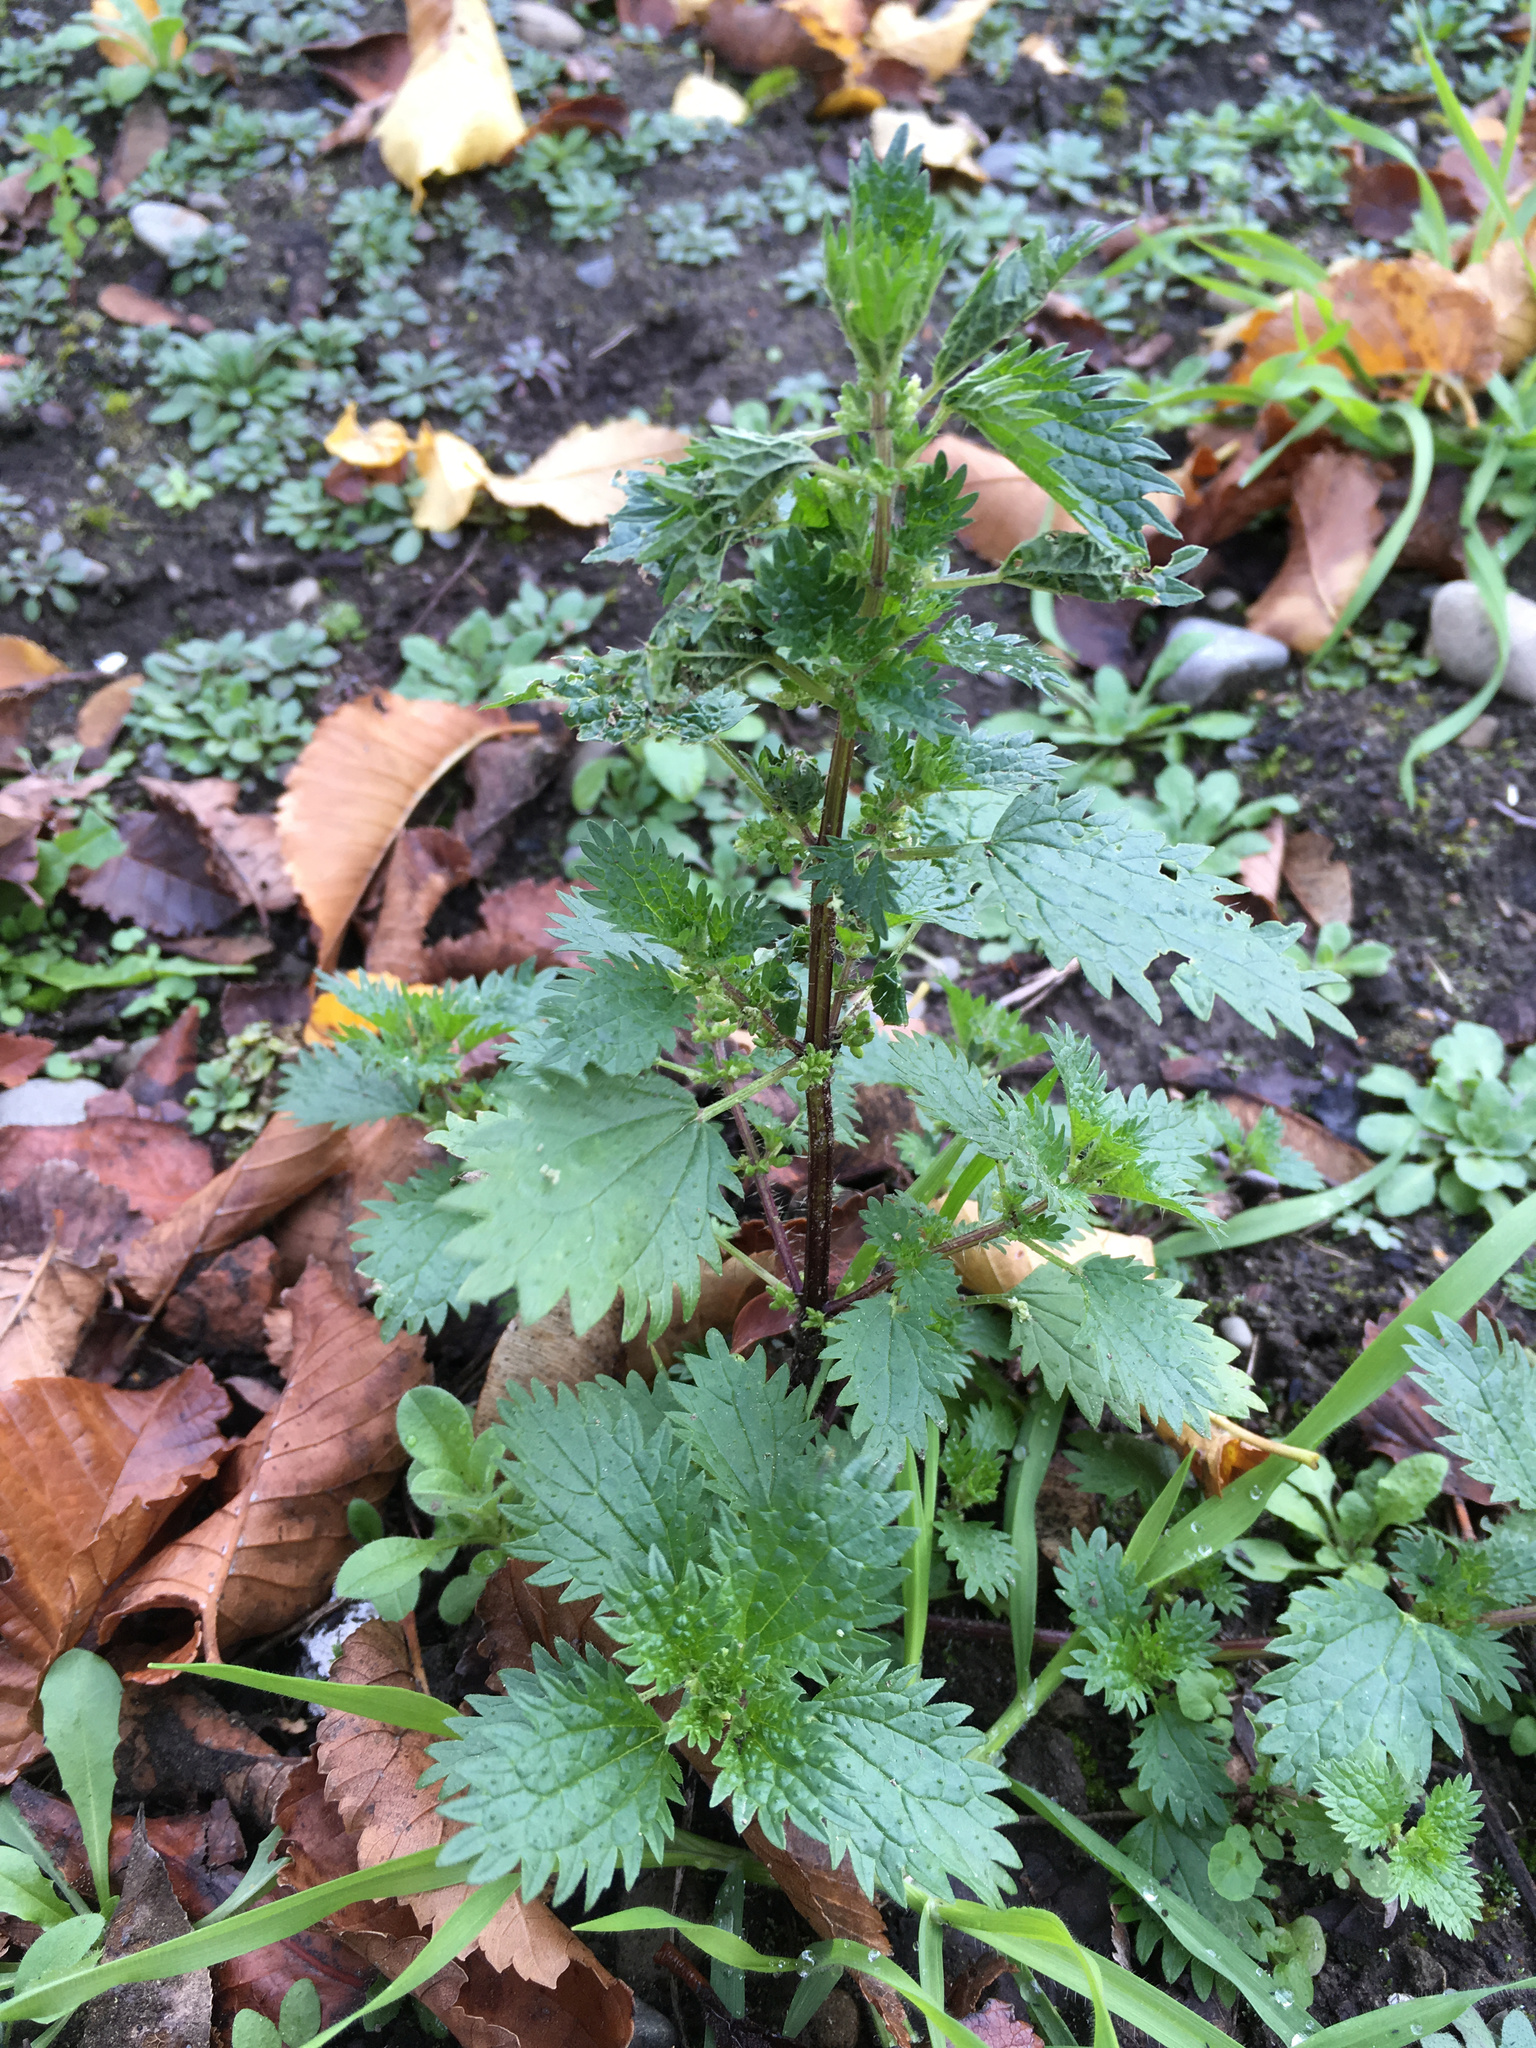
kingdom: Plantae
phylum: Tracheophyta
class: Magnoliopsida
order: Rosales
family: Urticaceae
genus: Urtica
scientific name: Urtica urens
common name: Dwarf nettle
